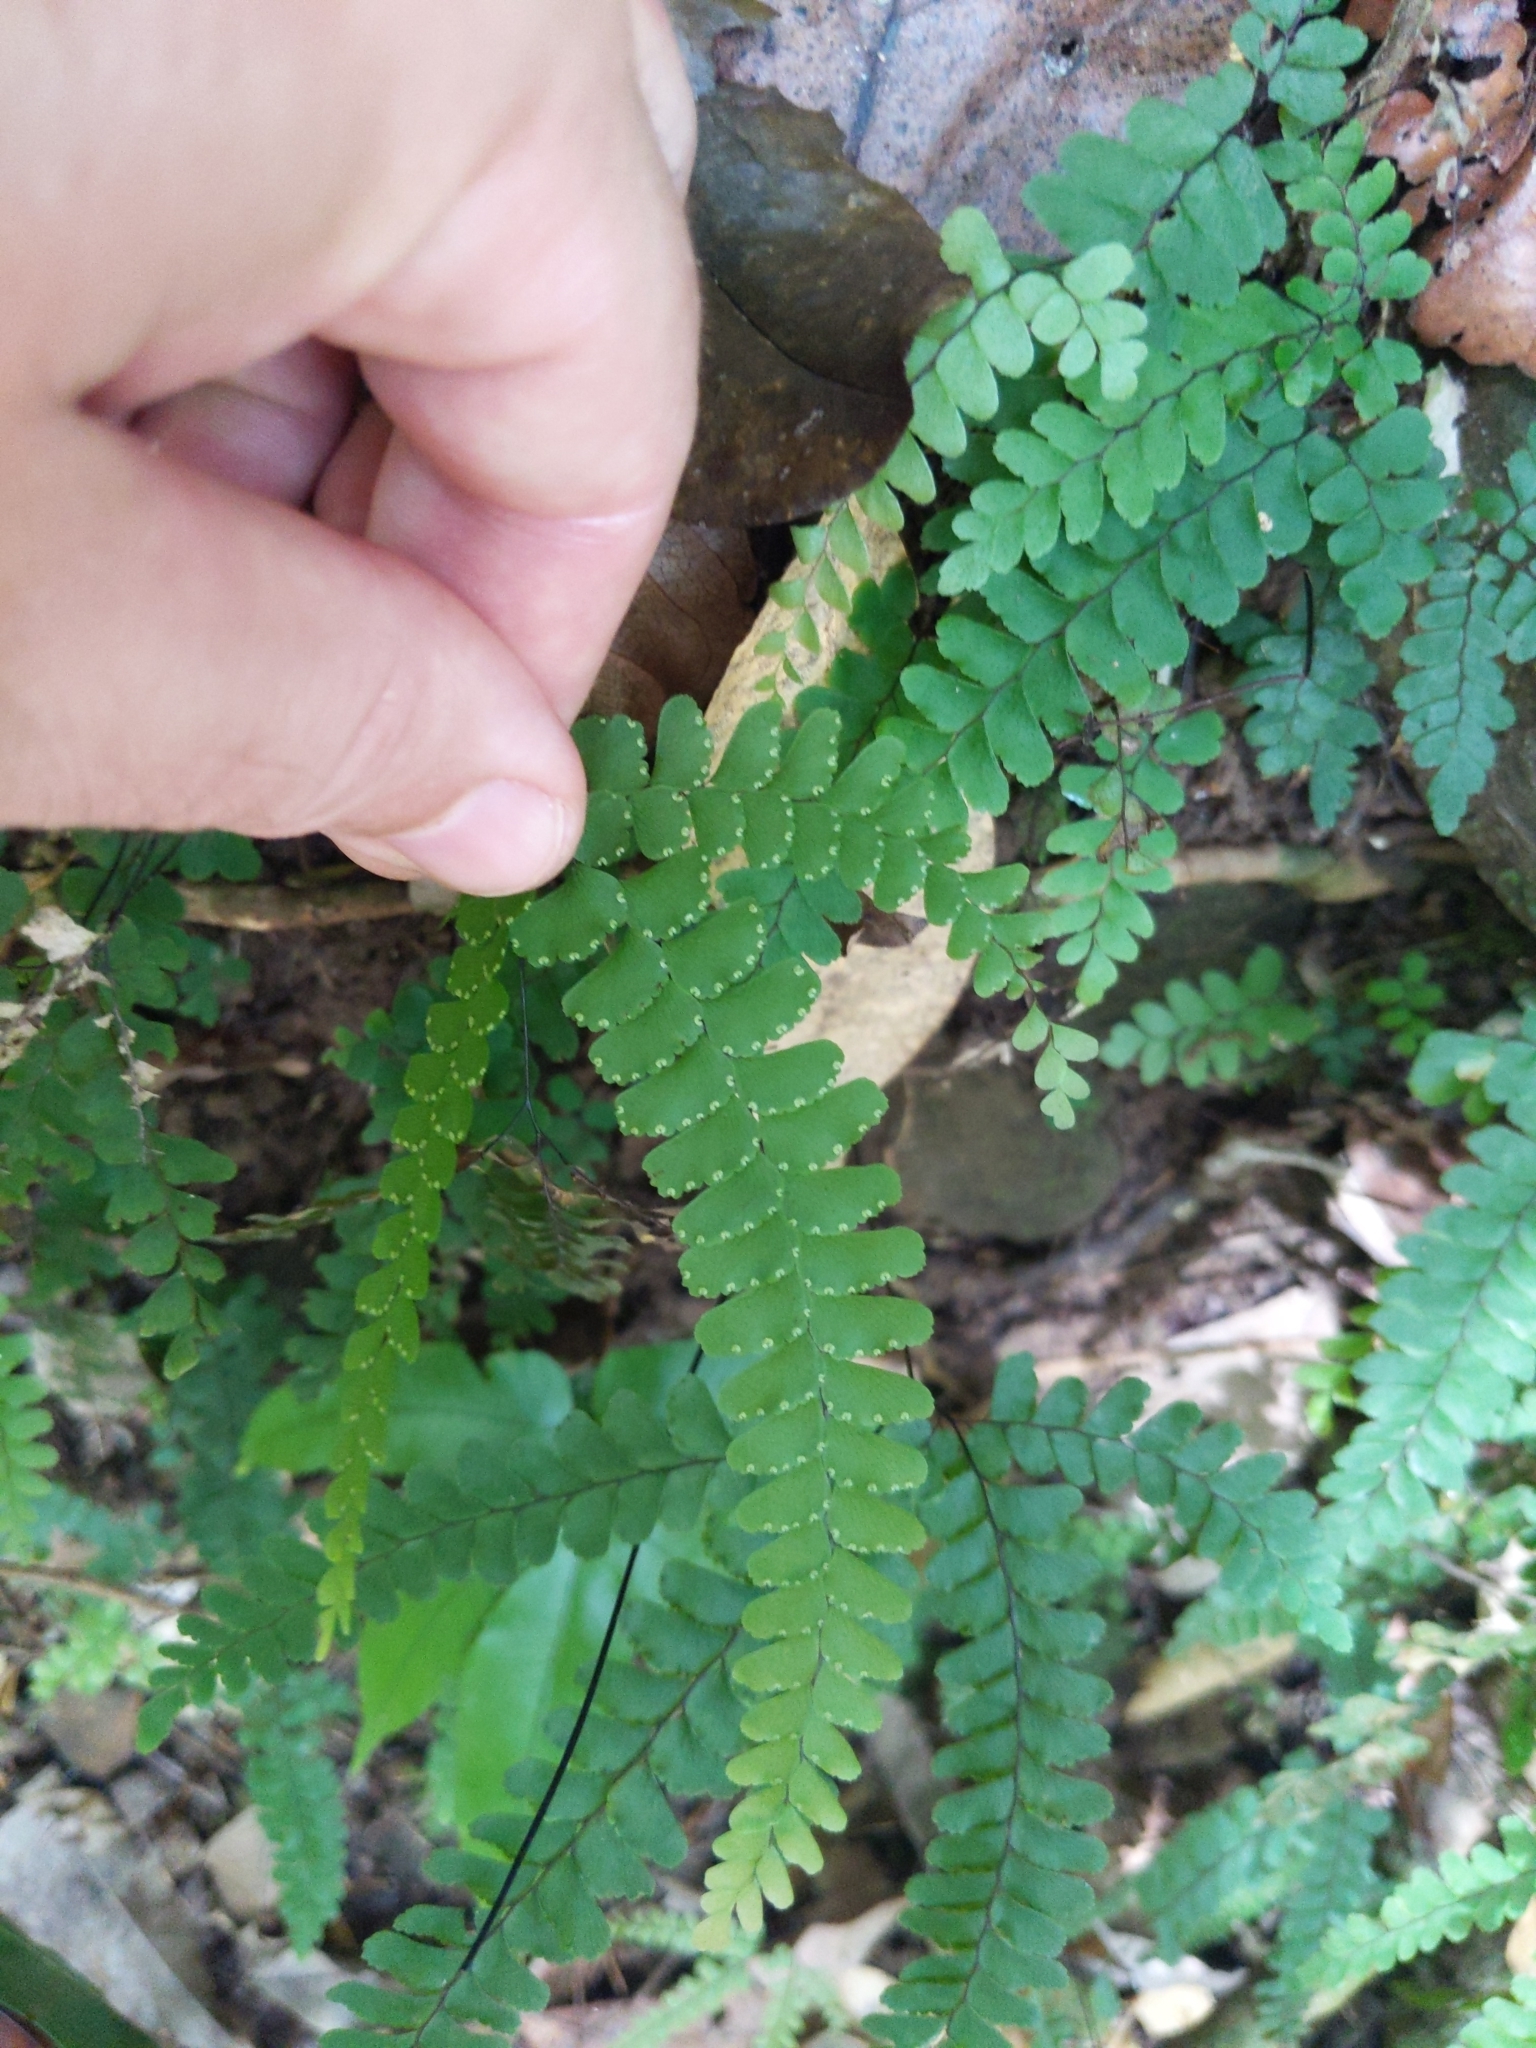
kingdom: Plantae
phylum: Tracheophyta
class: Polypodiopsida
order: Polypodiales
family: Pteridaceae
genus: Adiantum
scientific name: Adiantum hispidulum
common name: Rough maidenhair
